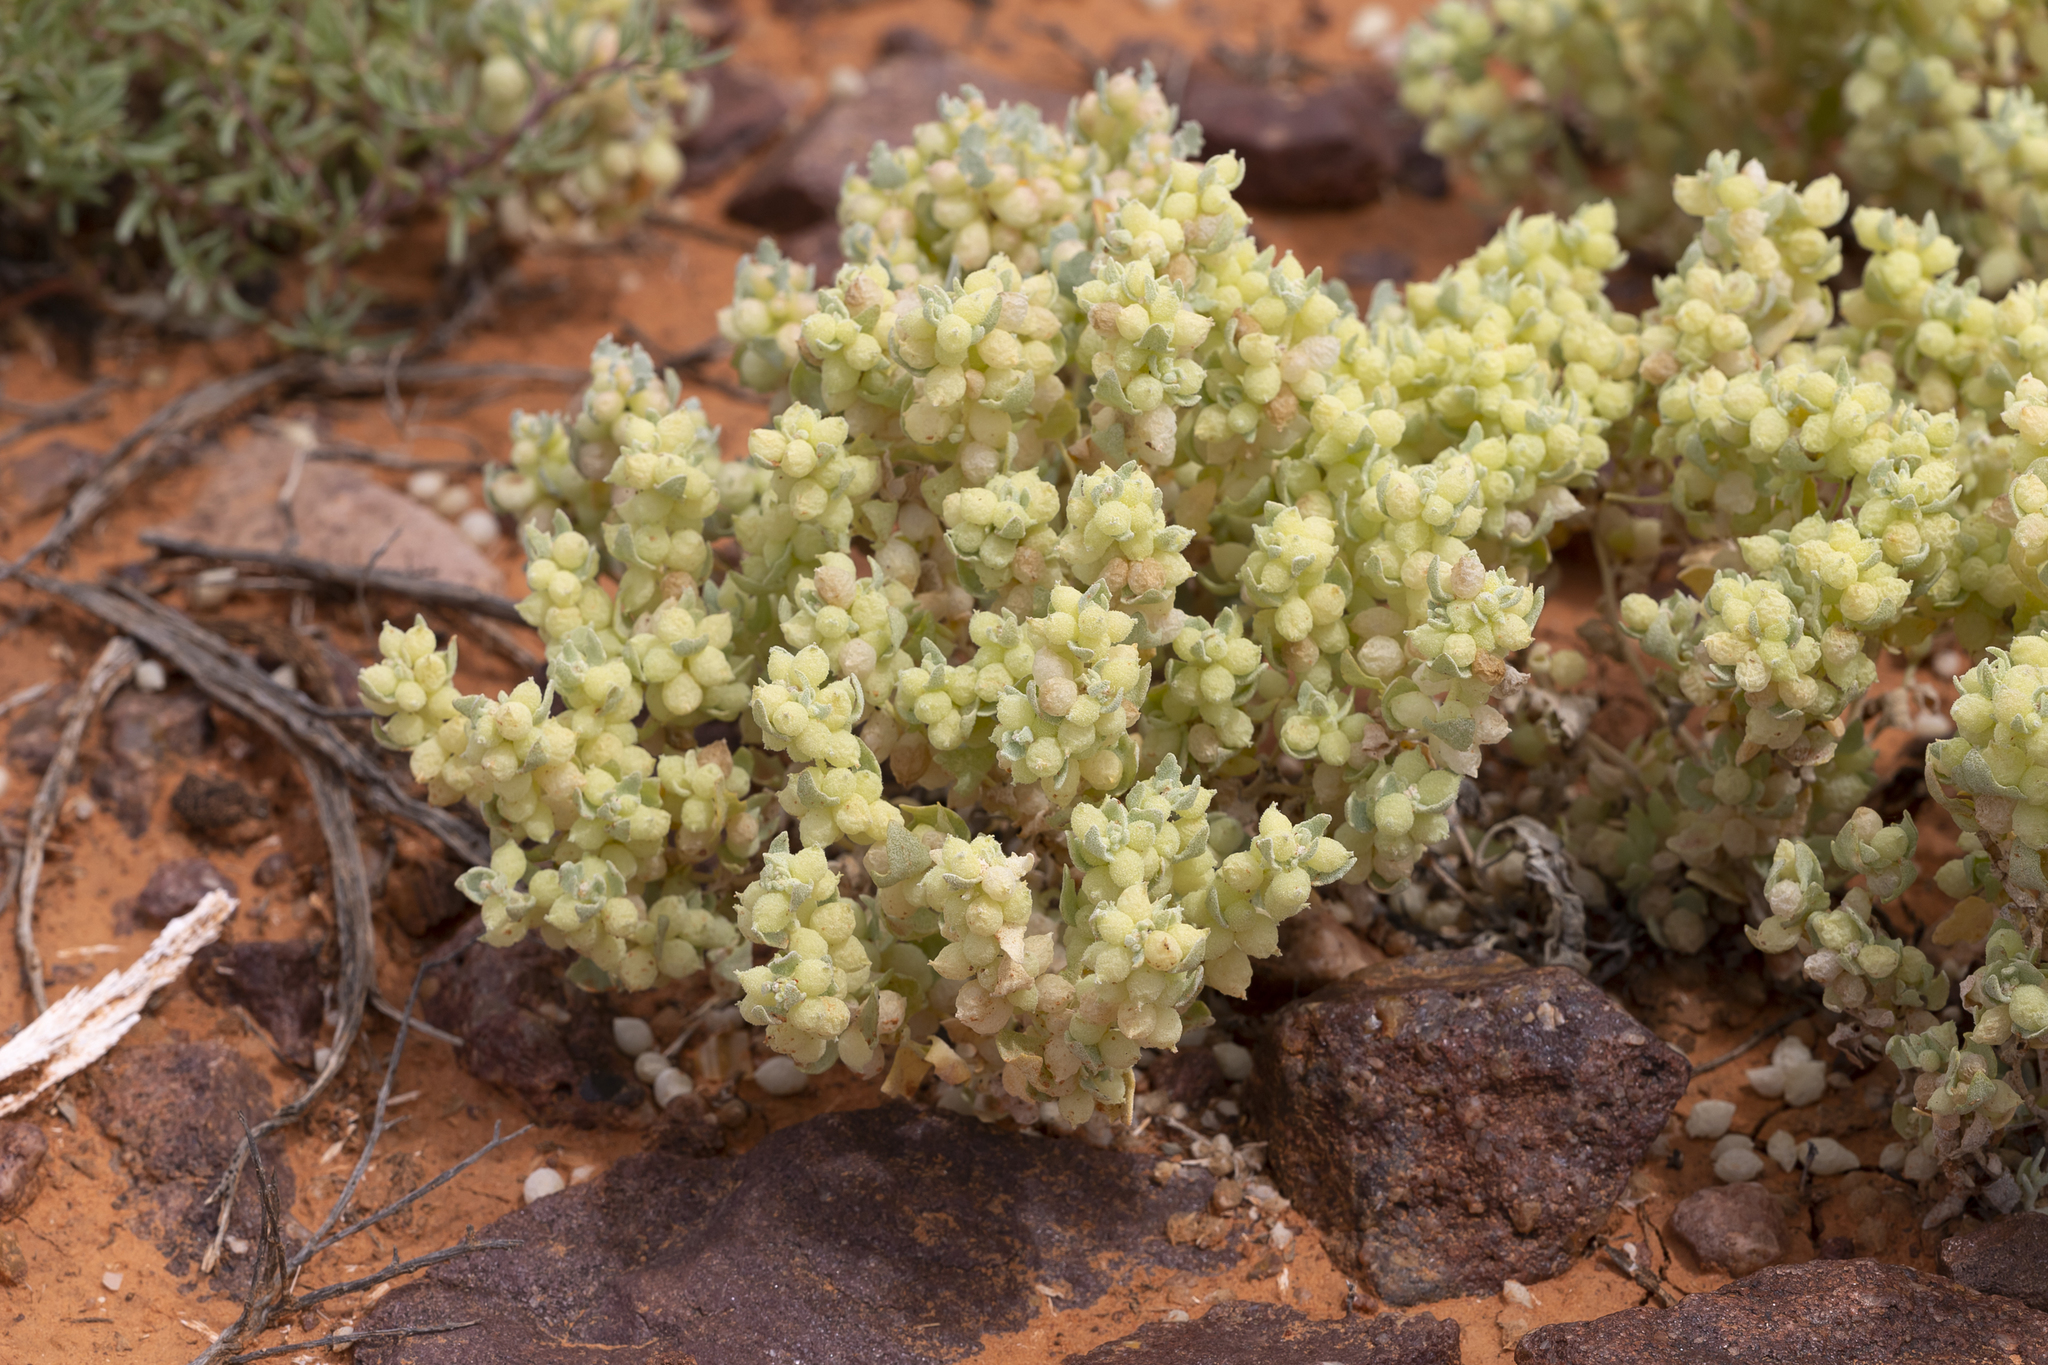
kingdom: Plantae
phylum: Tracheophyta
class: Magnoliopsida
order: Caryophyllales
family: Amaranthaceae
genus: Atriplex
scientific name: Atriplex spongiosa
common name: Pop saltbush
